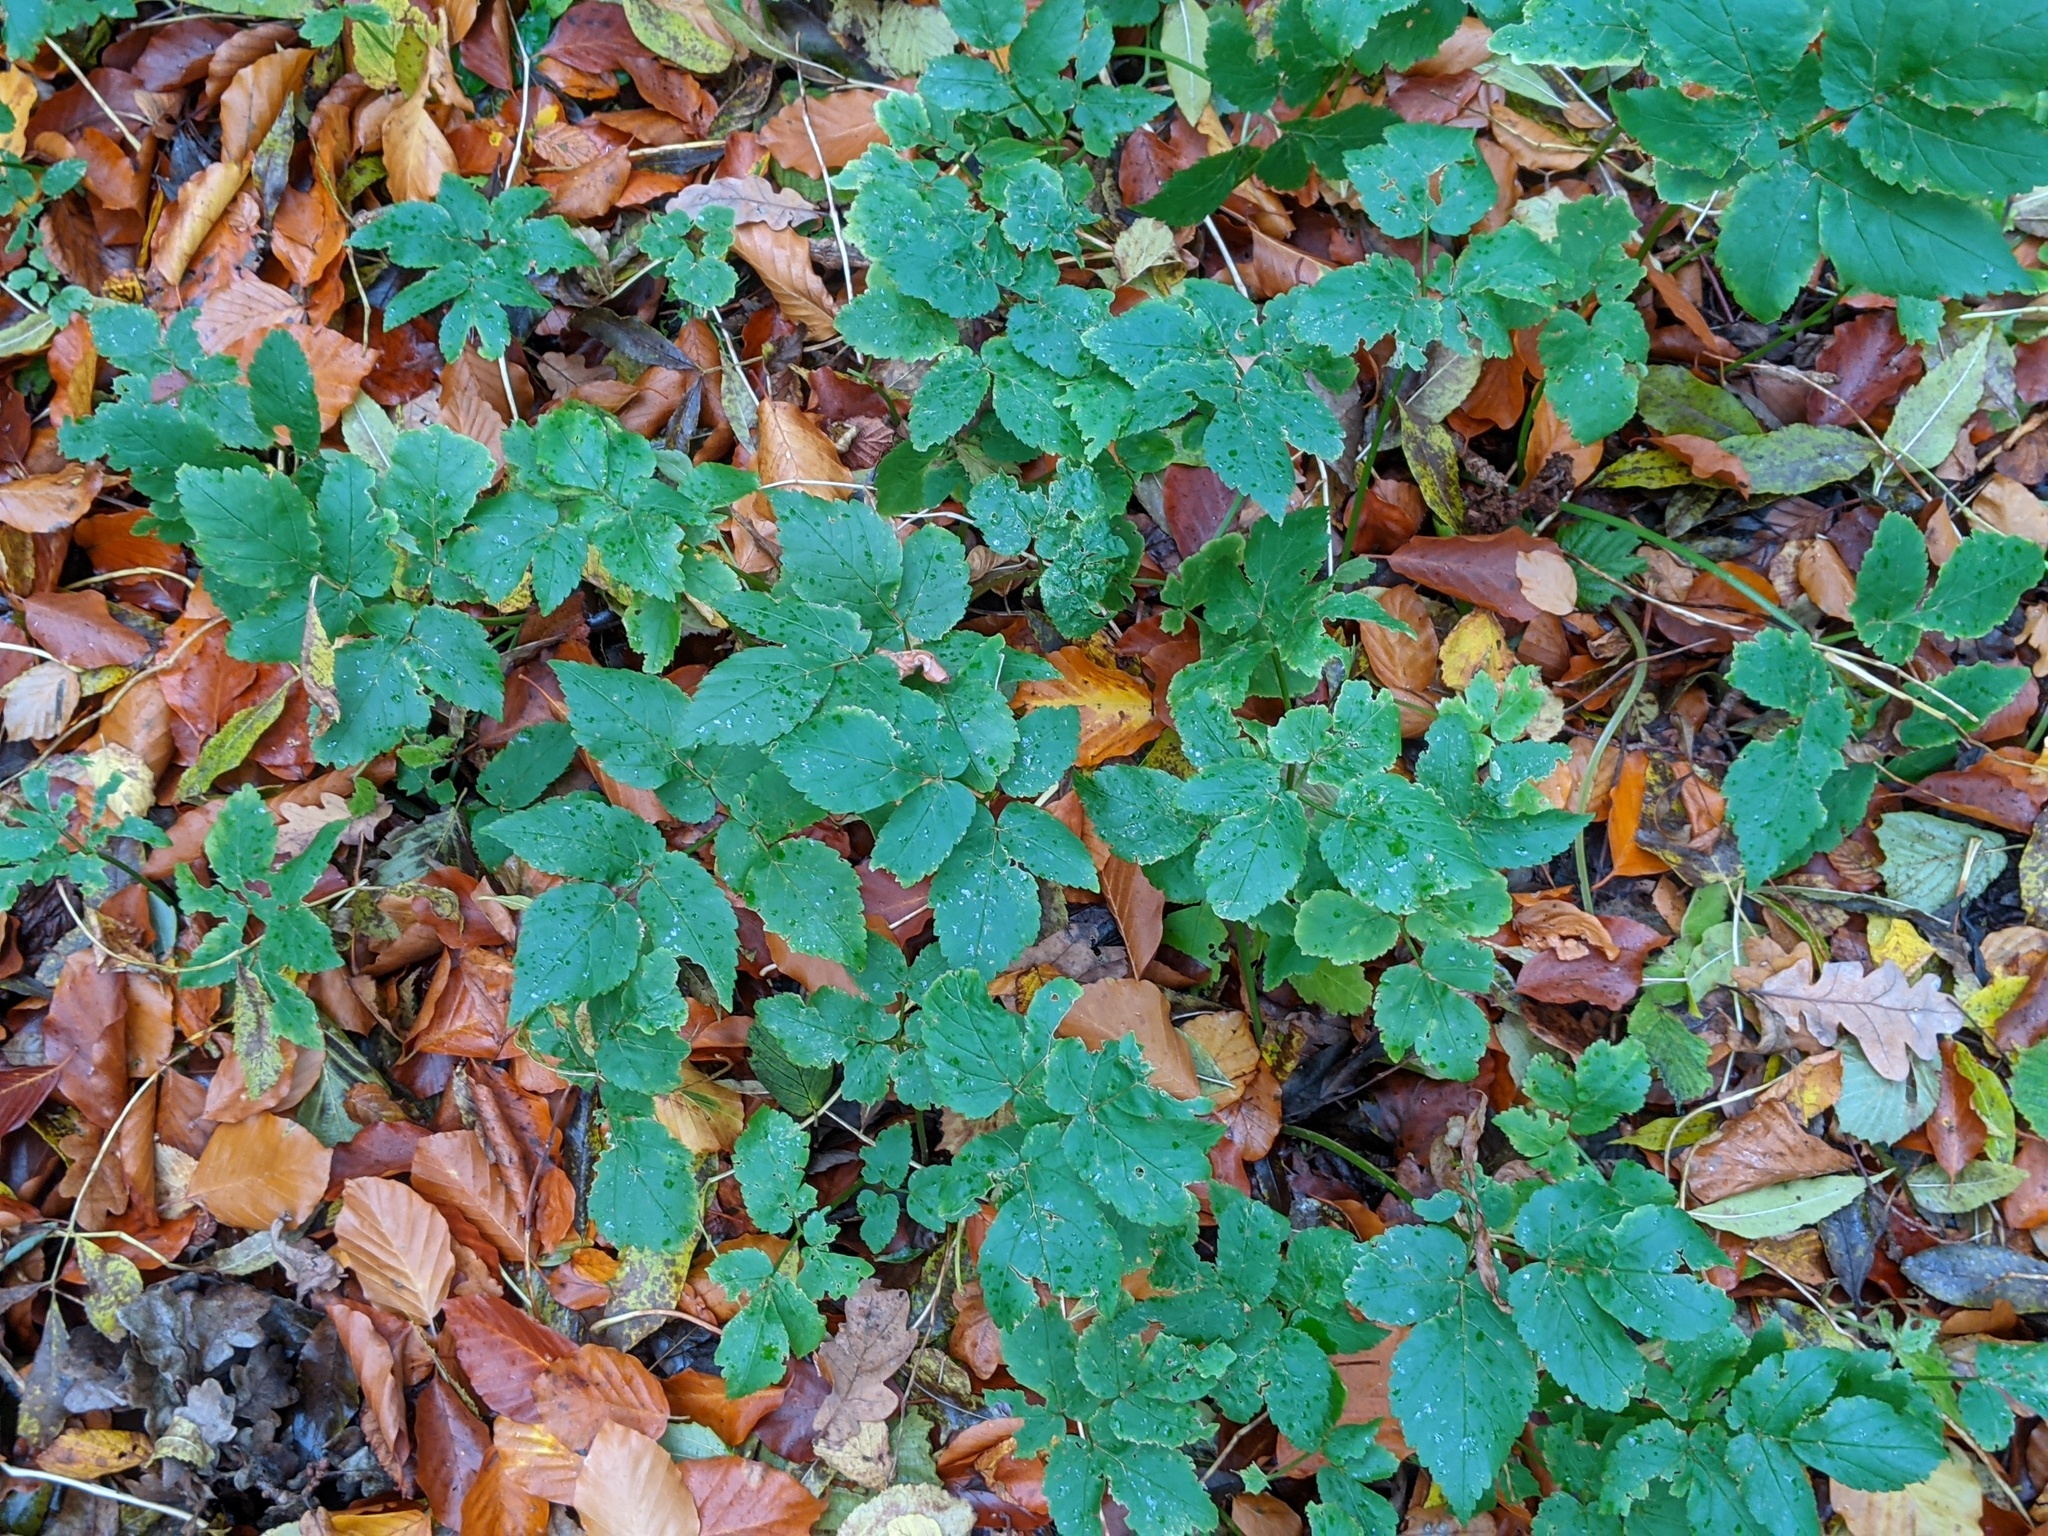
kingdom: Plantae
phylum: Tracheophyta
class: Magnoliopsida
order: Apiales
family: Apiaceae
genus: Aegopodium
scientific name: Aegopodium podagraria
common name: Ground-elder
